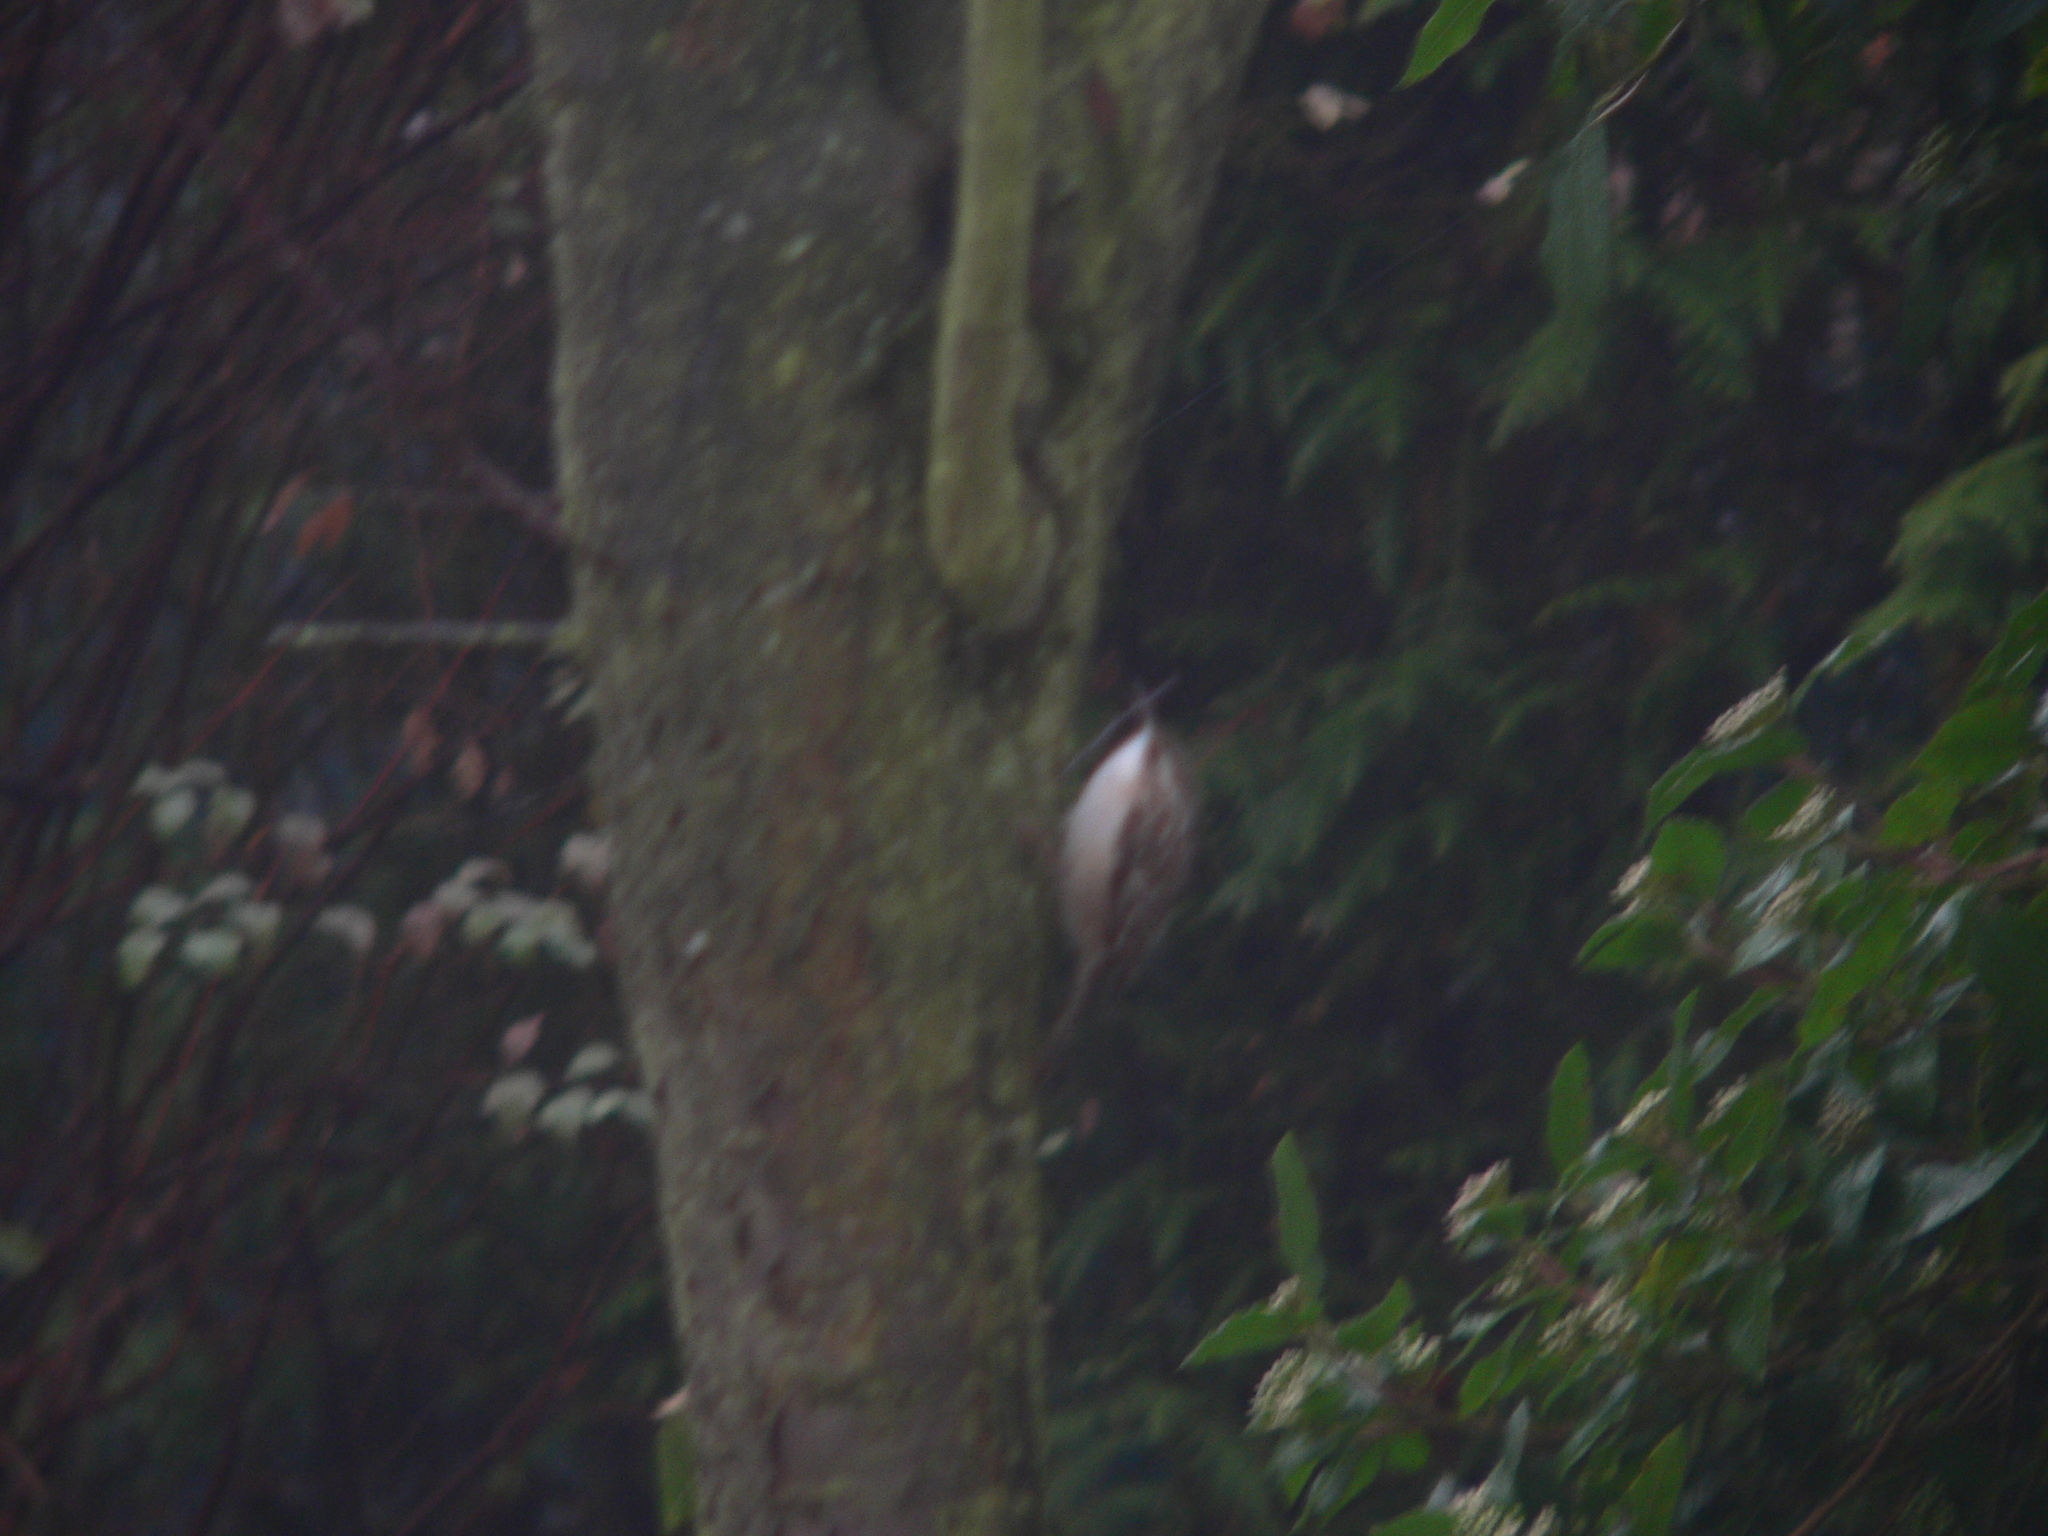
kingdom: Animalia
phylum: Chordata
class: Aves
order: Passeriformes
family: Certhiidae
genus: Certhia
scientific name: Certhia brachydactyla
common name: Short-toed treecreeper
